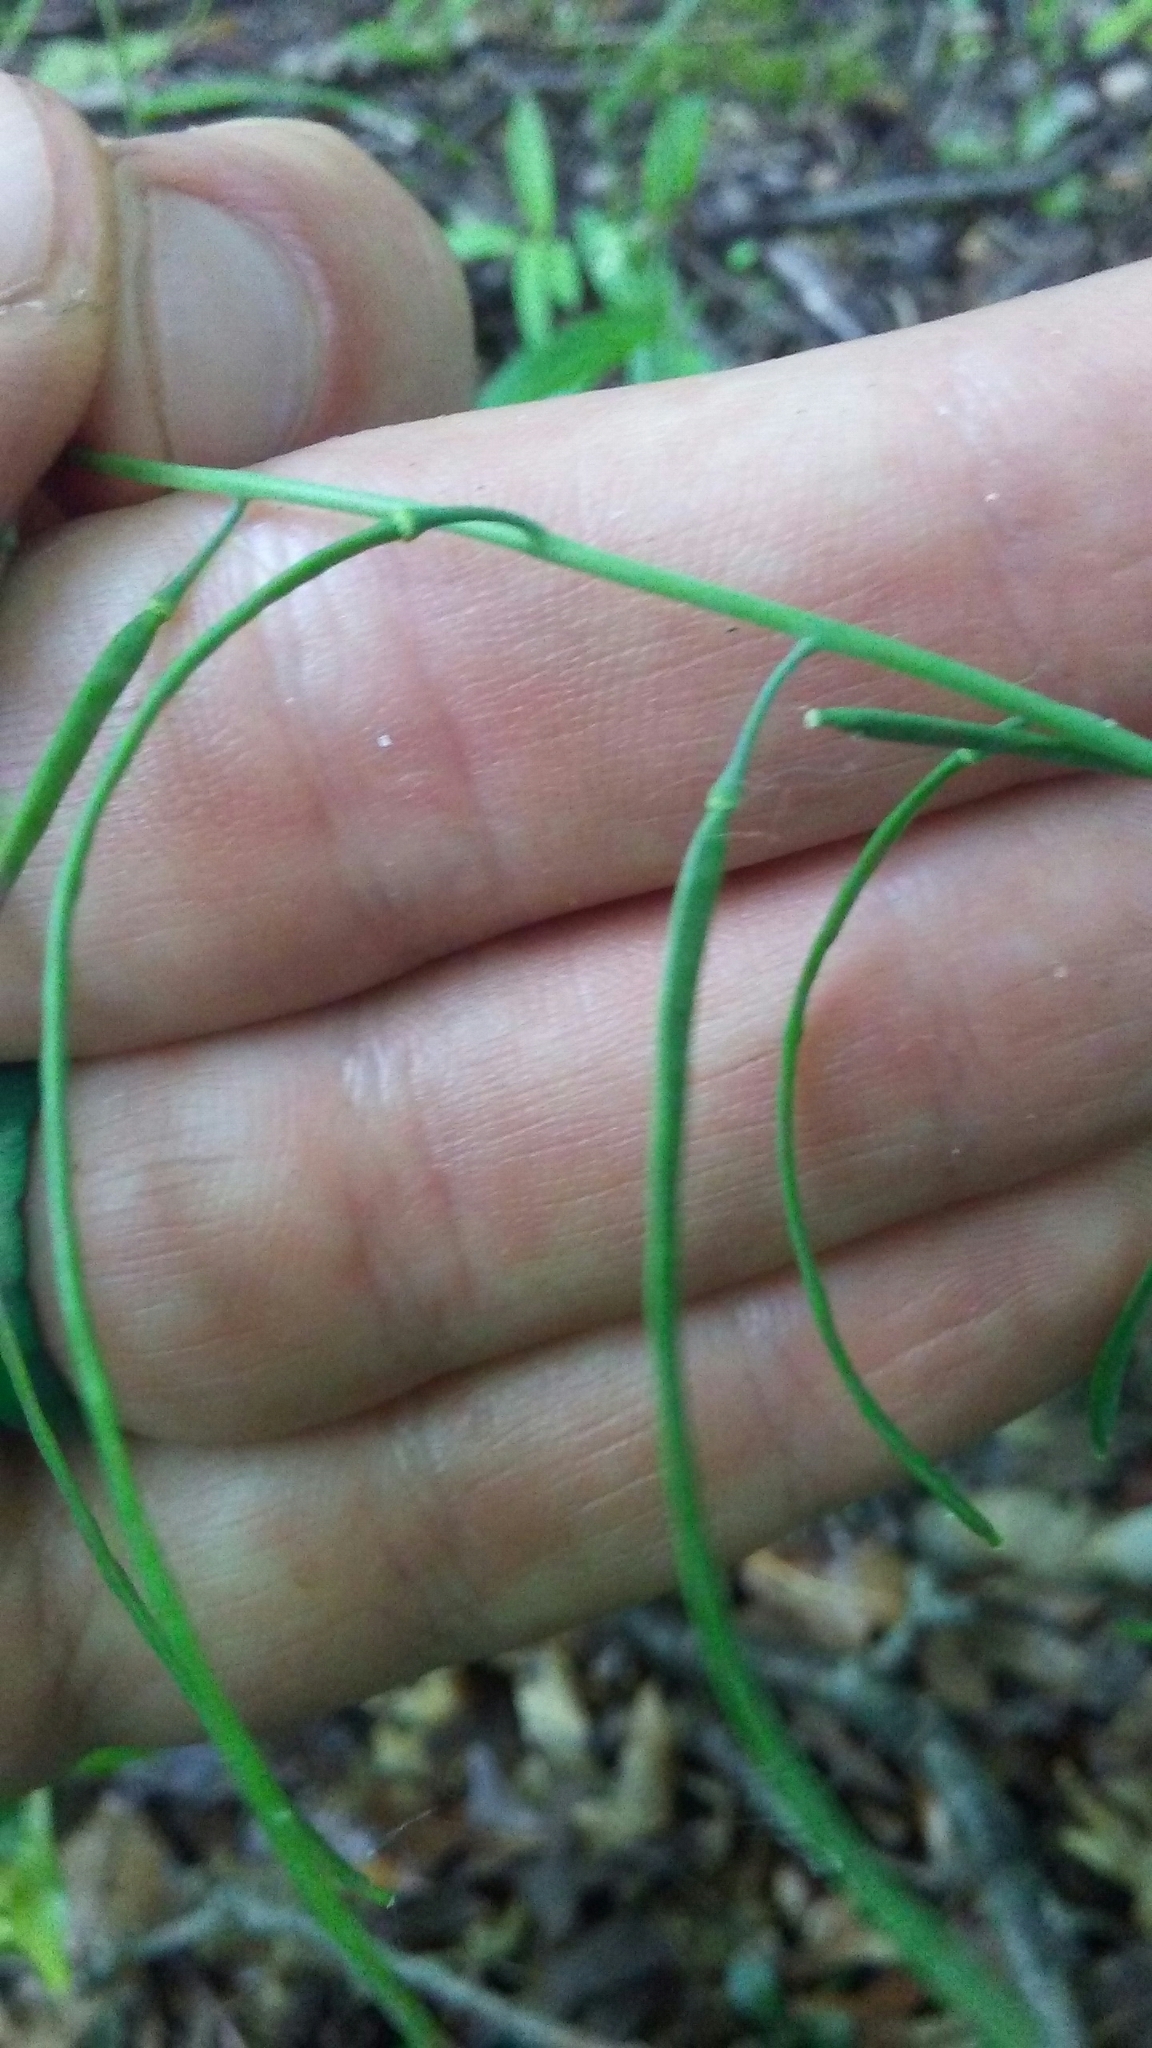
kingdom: Plantae
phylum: Tracheophyta
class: Magnoliopsida
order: Brassicales
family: Brassicaceae
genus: Borodinia
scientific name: Borodinia laevigata
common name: Smooth rockcress
